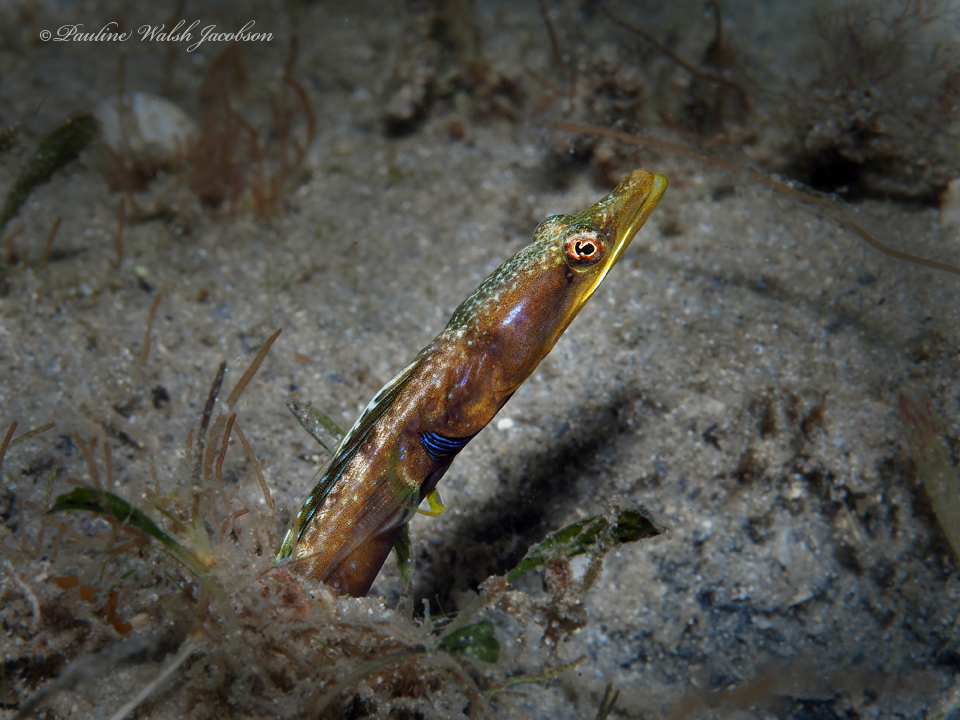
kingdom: Animalia
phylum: Chordata
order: Perciformes
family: Chaenopsidae
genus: Chaenopsis
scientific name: Chaenopsis ocellata
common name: Bluethroat pikeblenny
